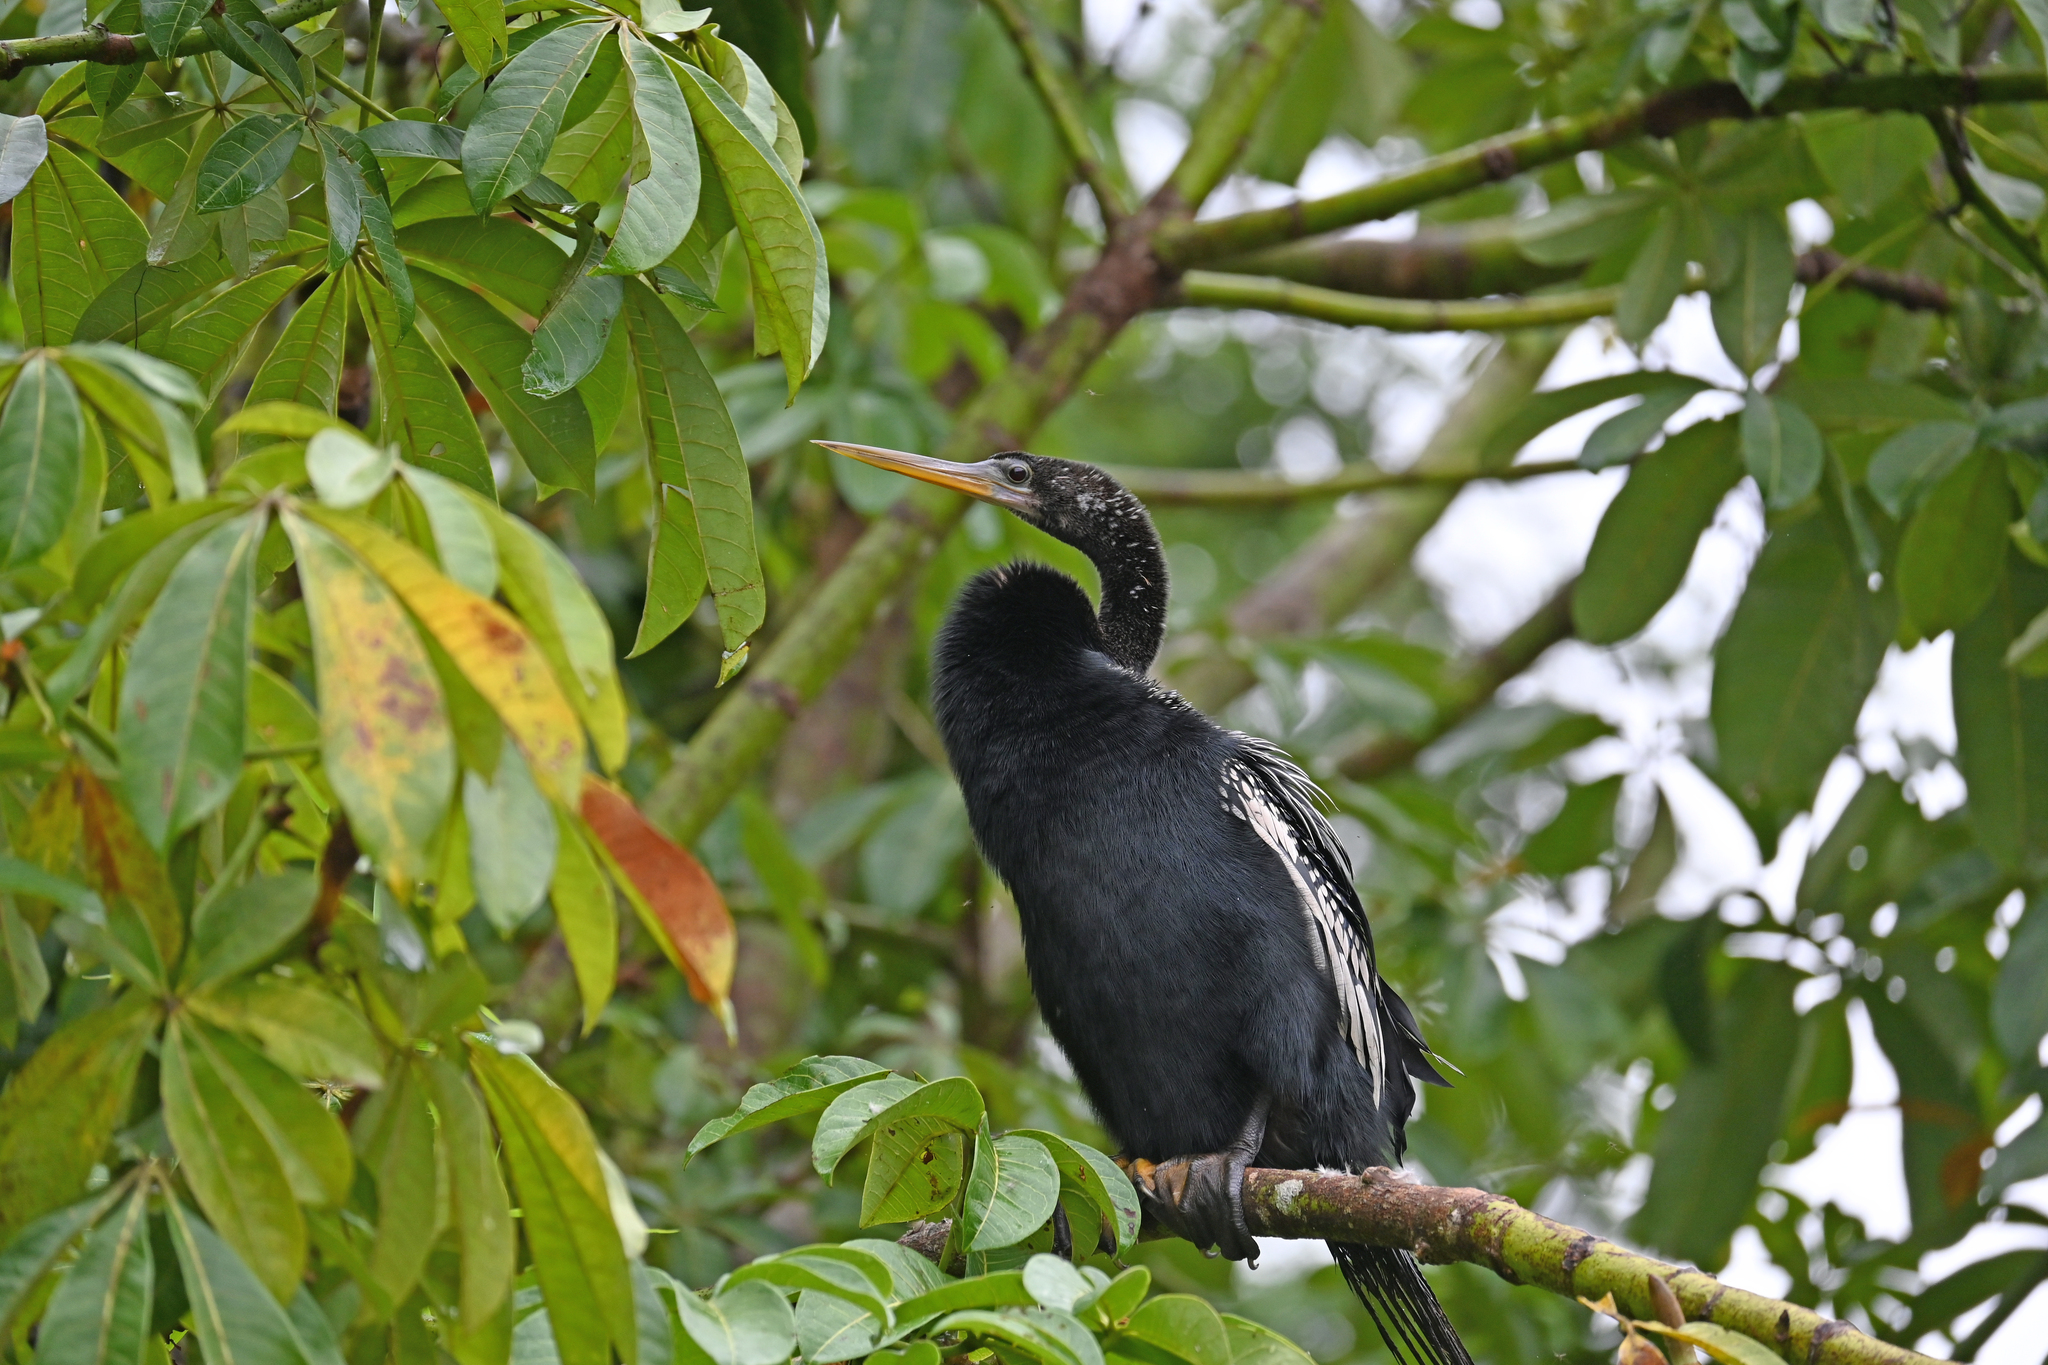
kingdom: Animalia
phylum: Chordata
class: Aves
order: Suliformes
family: Anhingidae
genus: Anhinga
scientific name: Anhinga anhinga
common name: Anhinga
